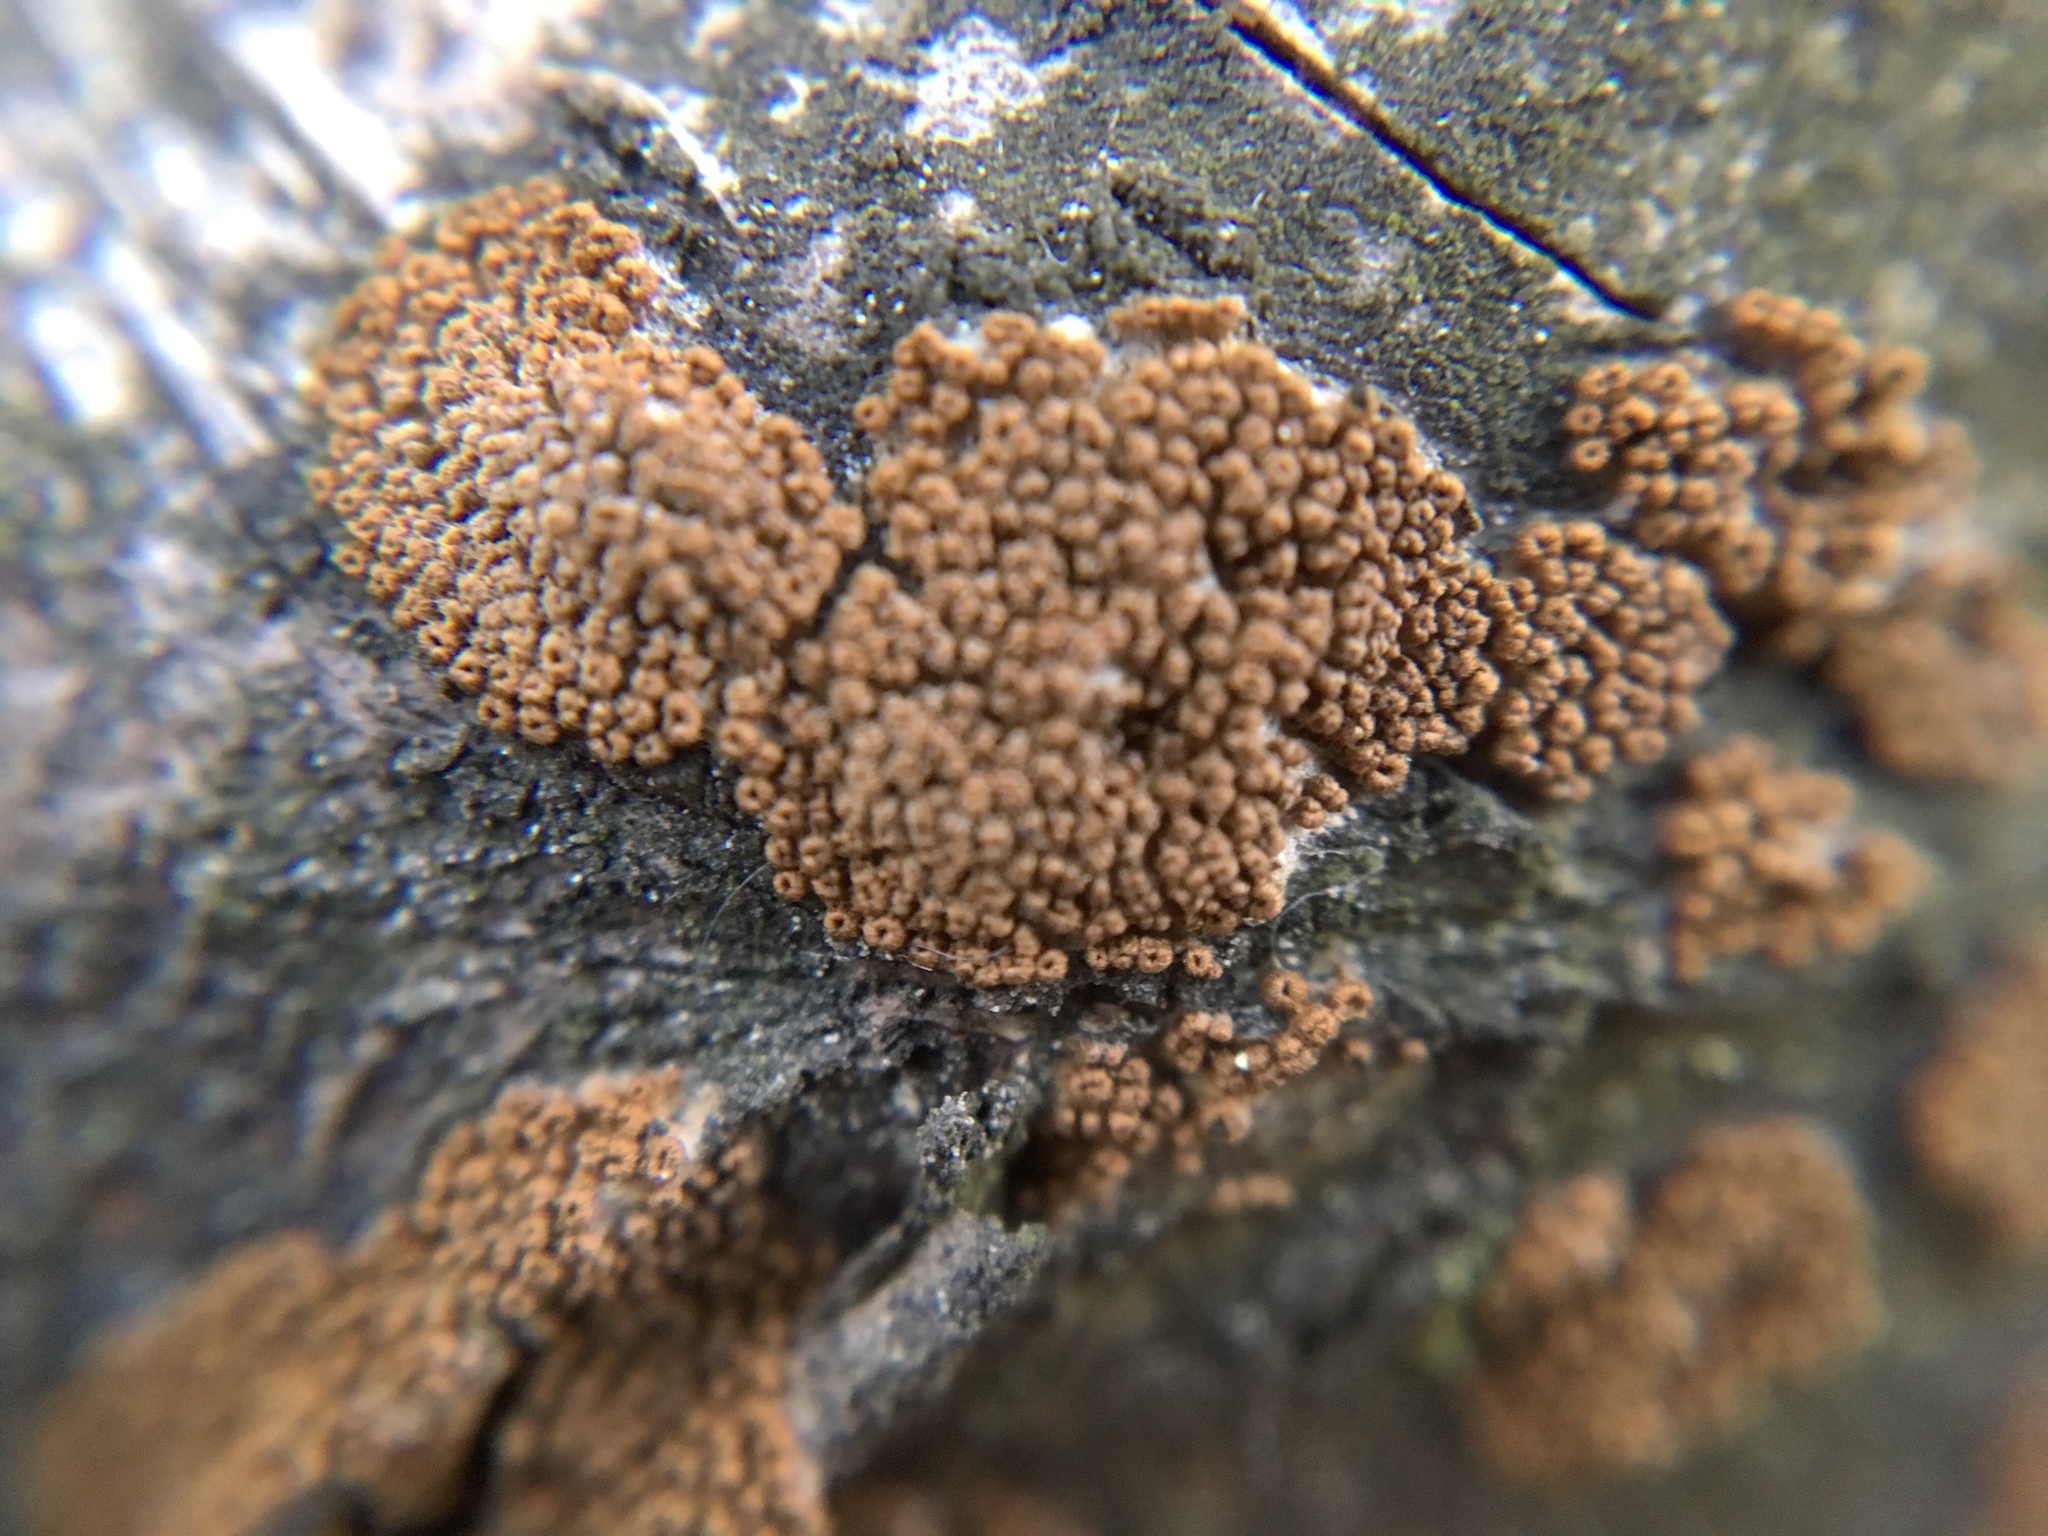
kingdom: Fungi
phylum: Basidiomycota
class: Agaricomycetes
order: Agaricales
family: Niaceae
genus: Merismodes
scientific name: Merismodes anomala
